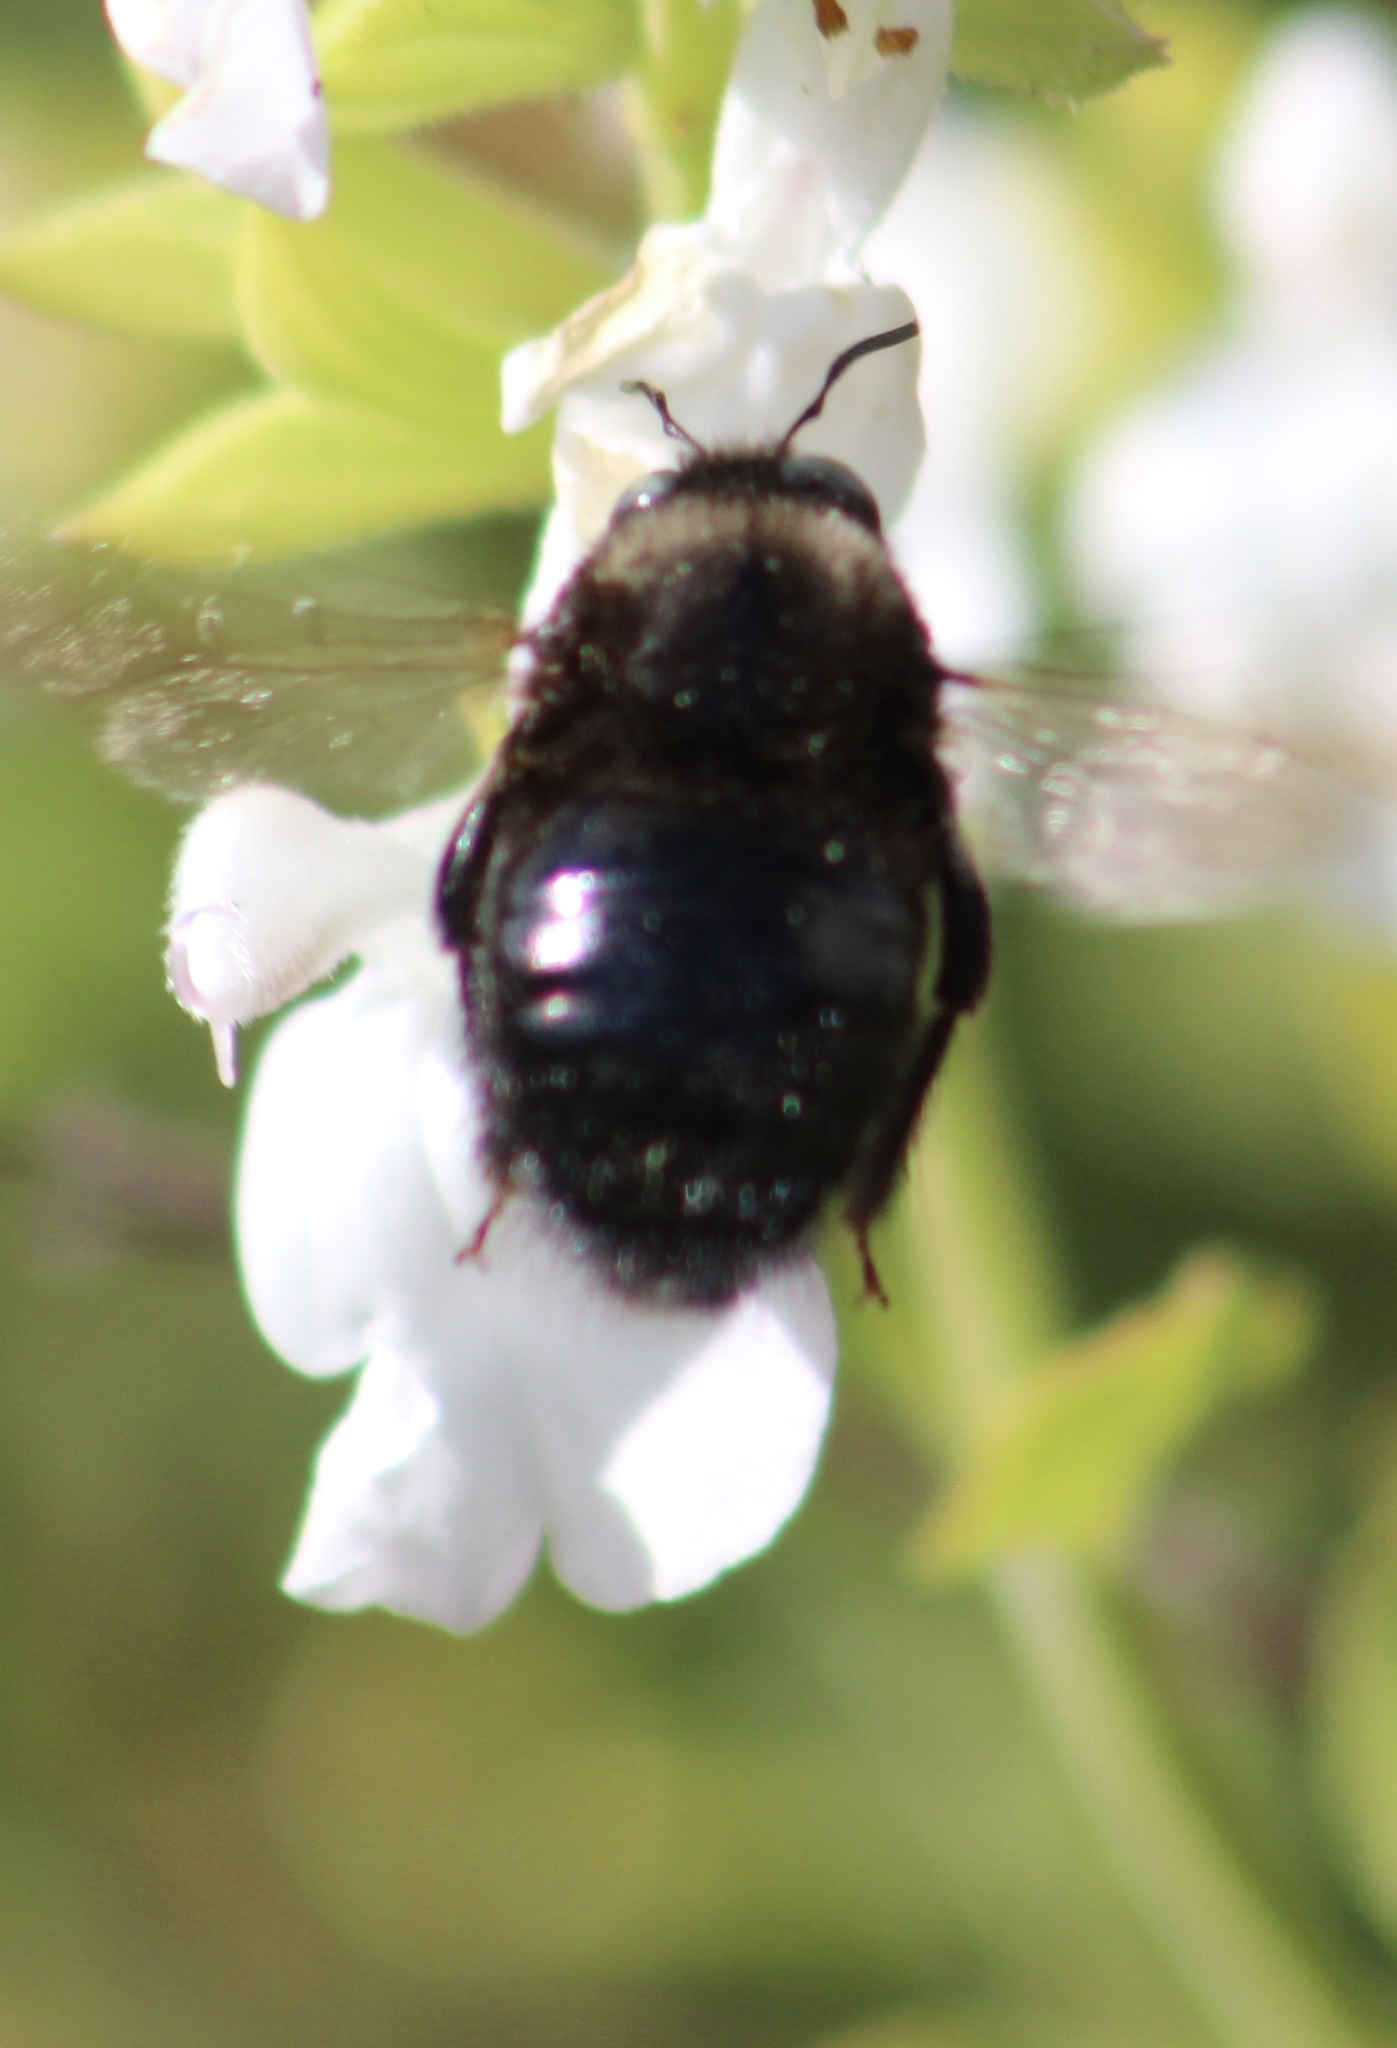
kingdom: Animalia
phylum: Arthropoda
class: Insecta
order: Hymenoptera
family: Apidae
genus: Xylocopa
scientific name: Xylocopa tabaniformis
